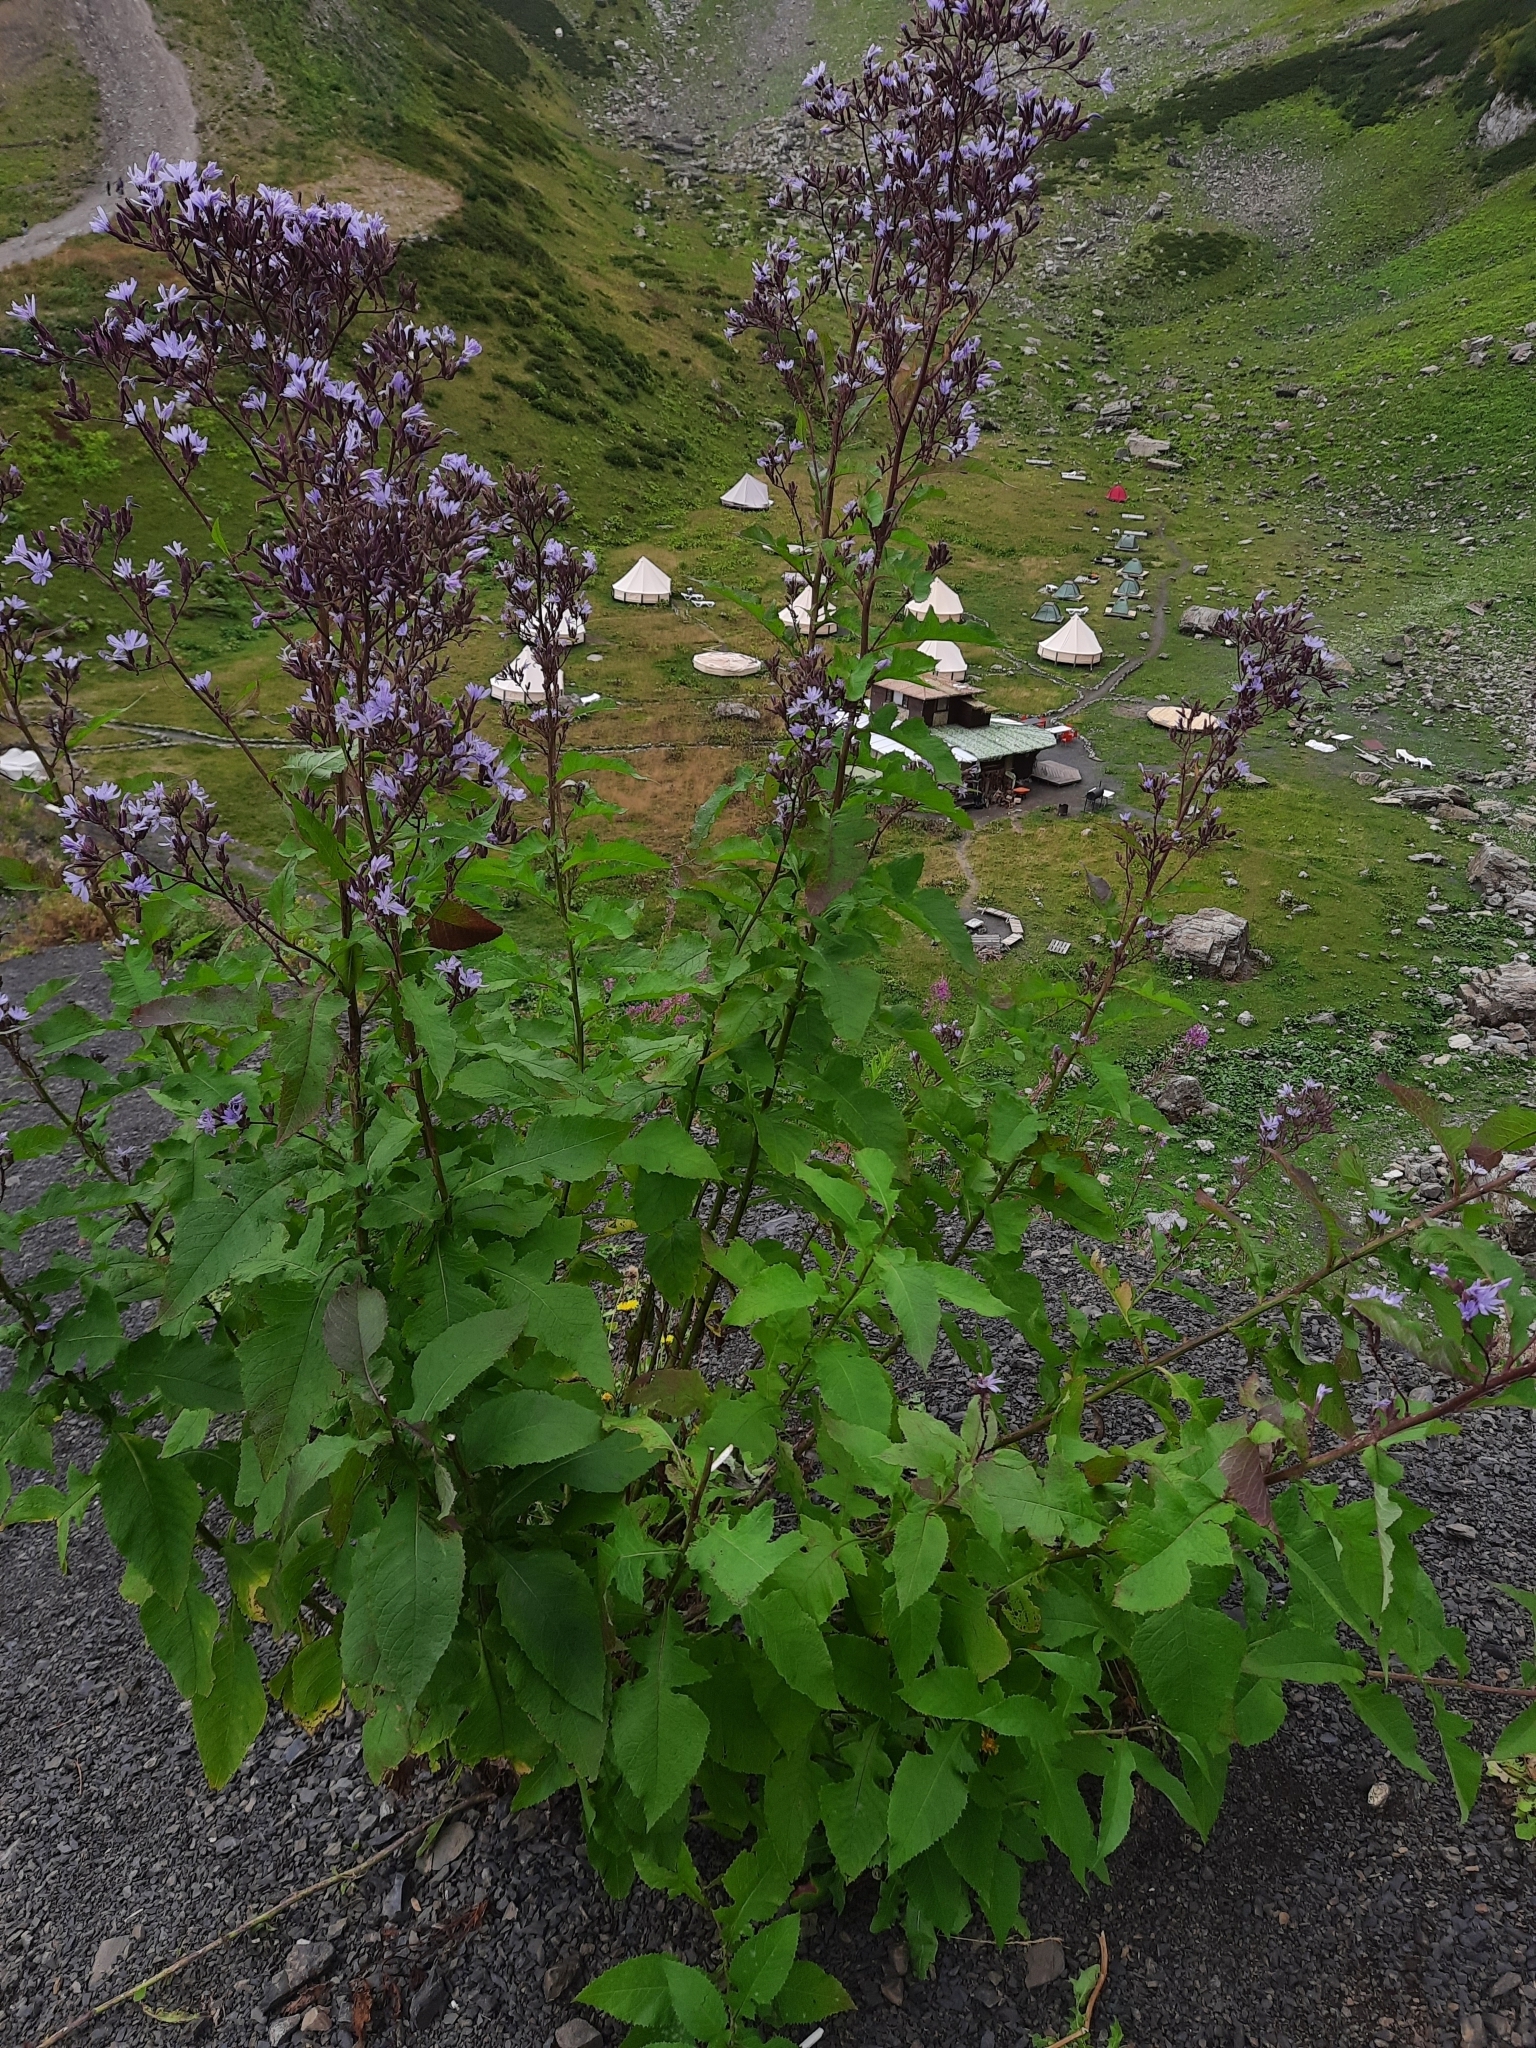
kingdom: Plantae
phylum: Tracheophyta
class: Magnoliopsida
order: Asterales
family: Asteraceae
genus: Cicerbita
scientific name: Cicerbita prenanthoides
